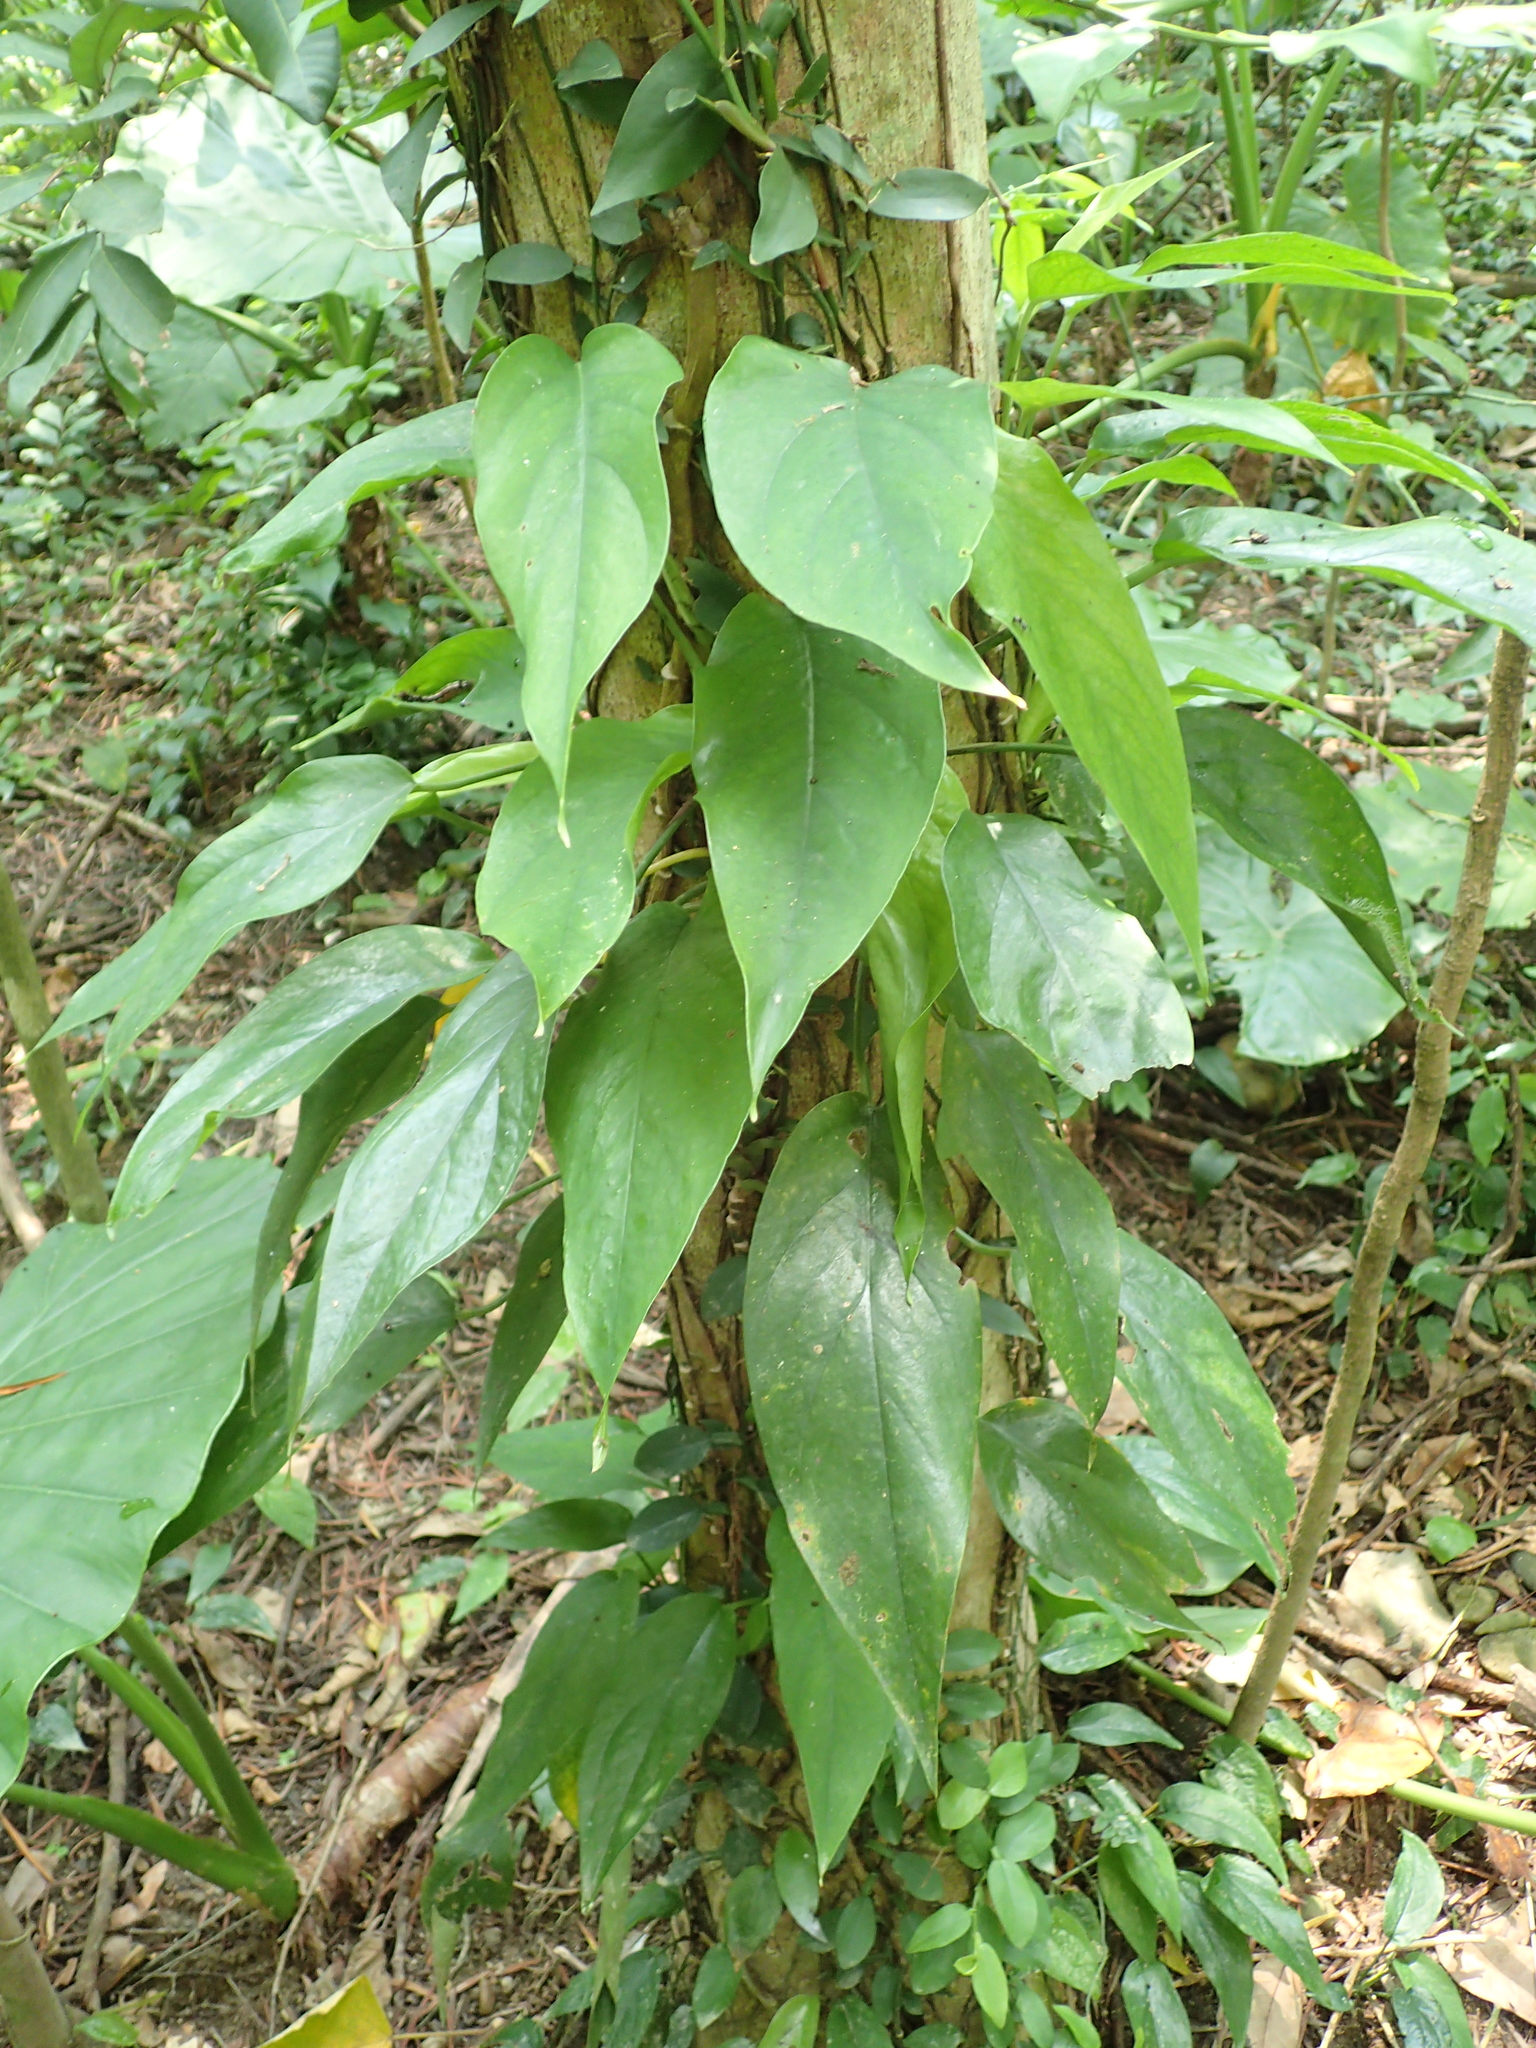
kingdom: Plantae
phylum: Tracheophyta
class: Liliopsida
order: Alismatales
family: Araceae
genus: Epipremnum
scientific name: Epipremnum pinnatum
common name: Centipede tongavine
